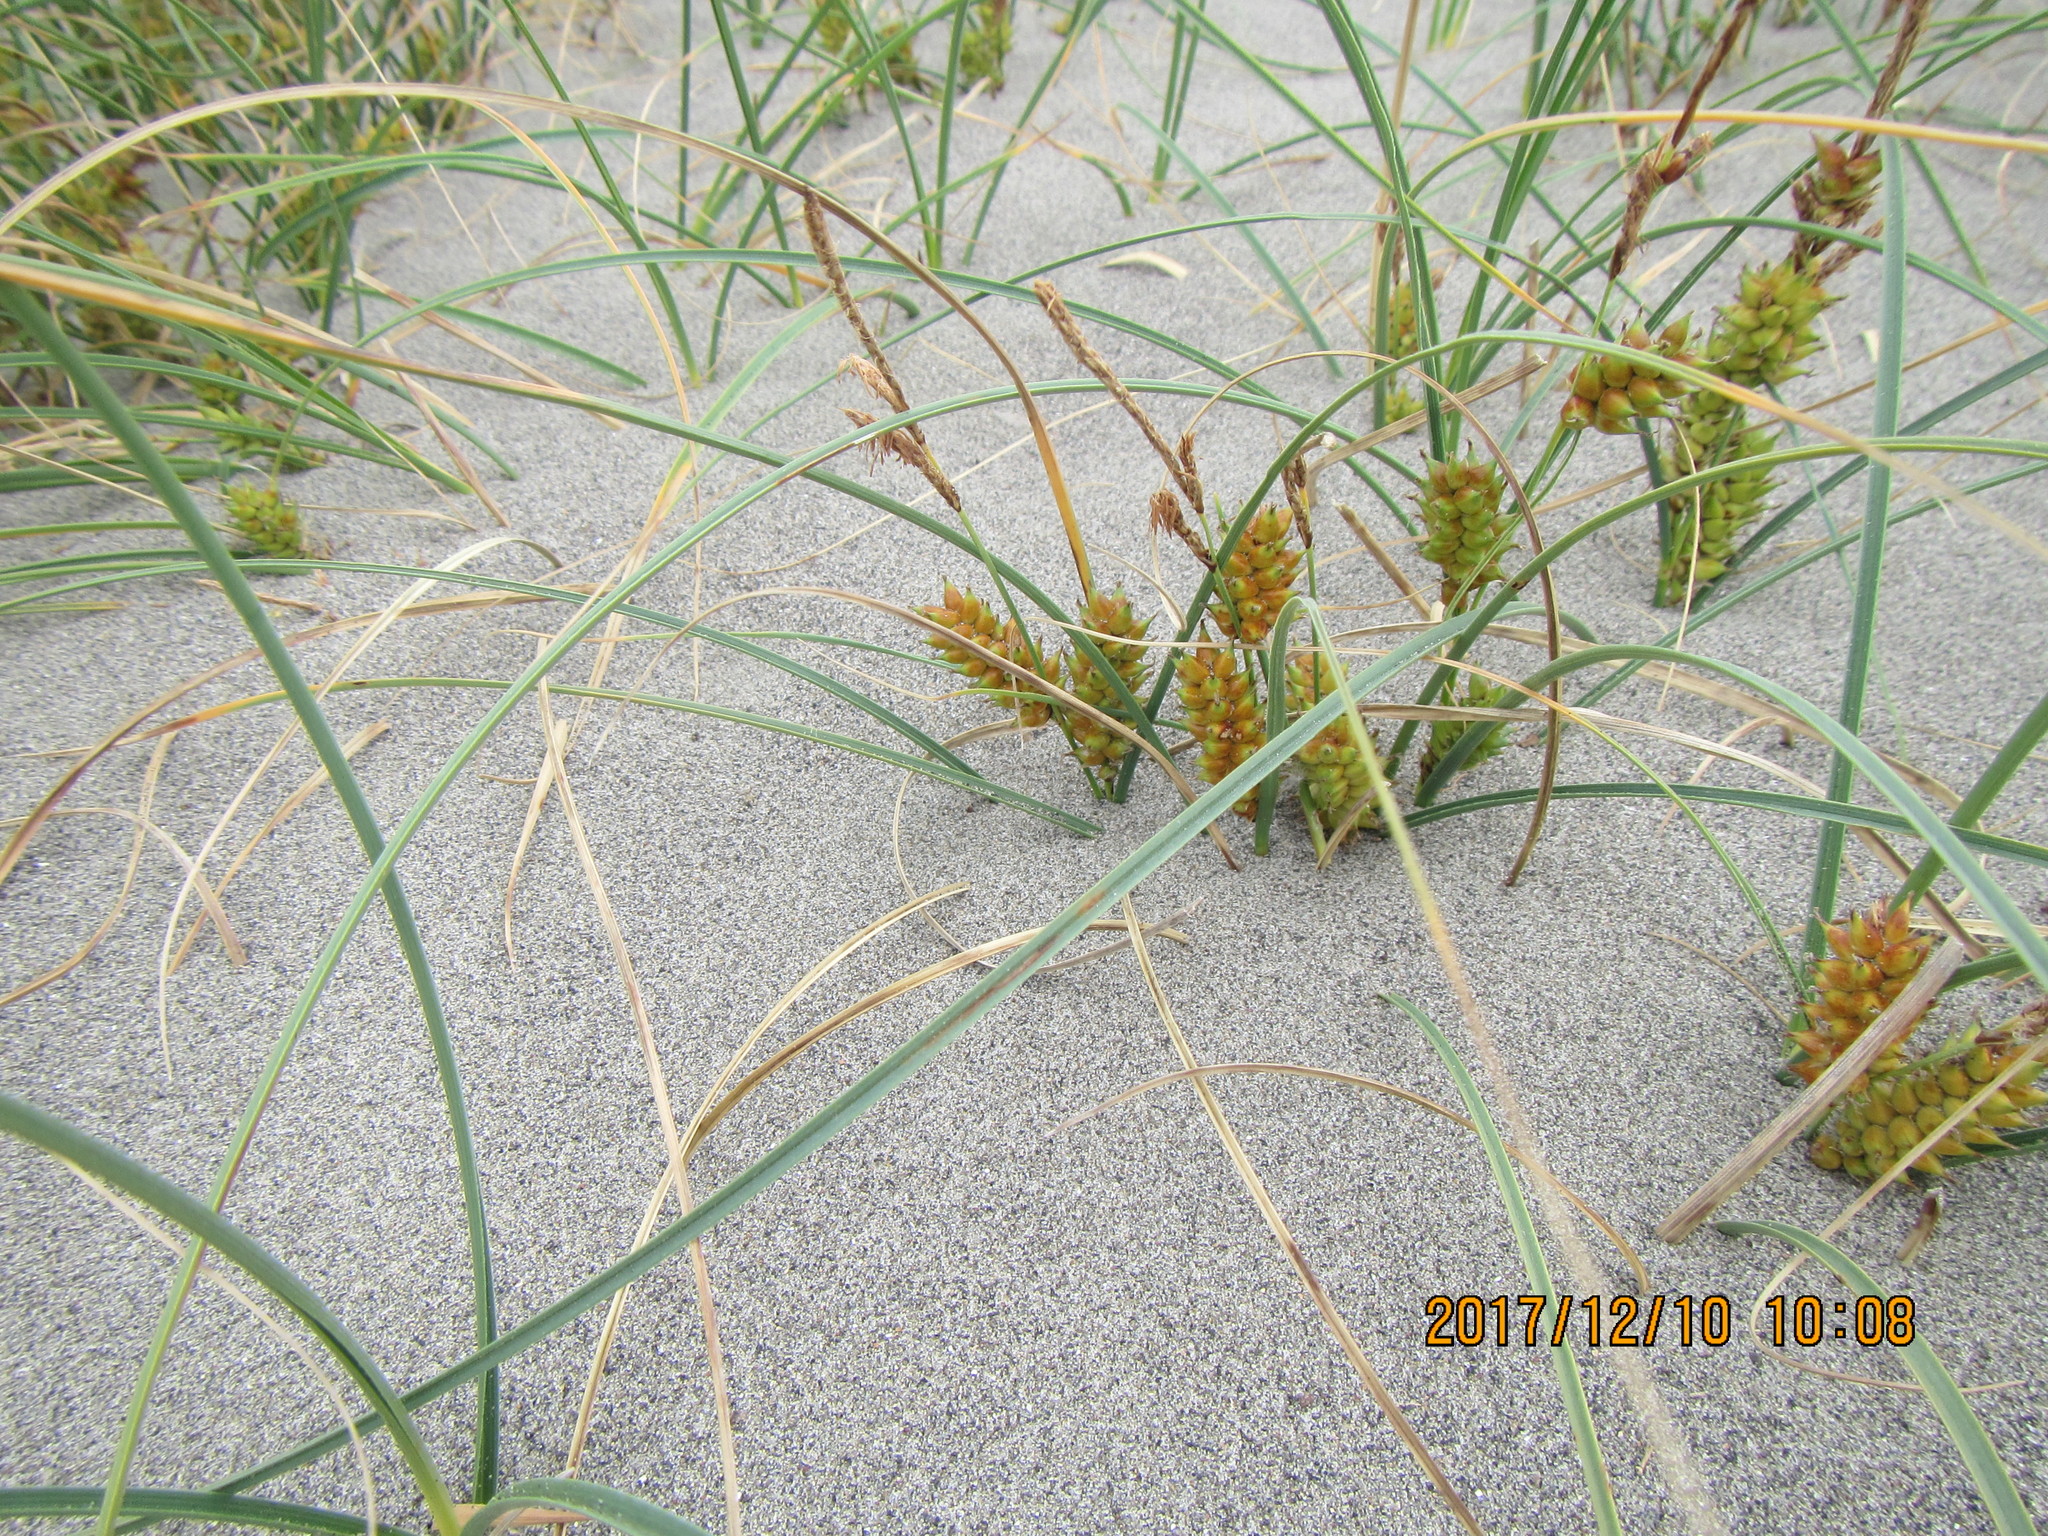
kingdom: Plantae
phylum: Tracheophyta
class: Liliopsida
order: Poales
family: Cyperaceae
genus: Carex
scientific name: Carex pumila
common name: Dwarf sedge
